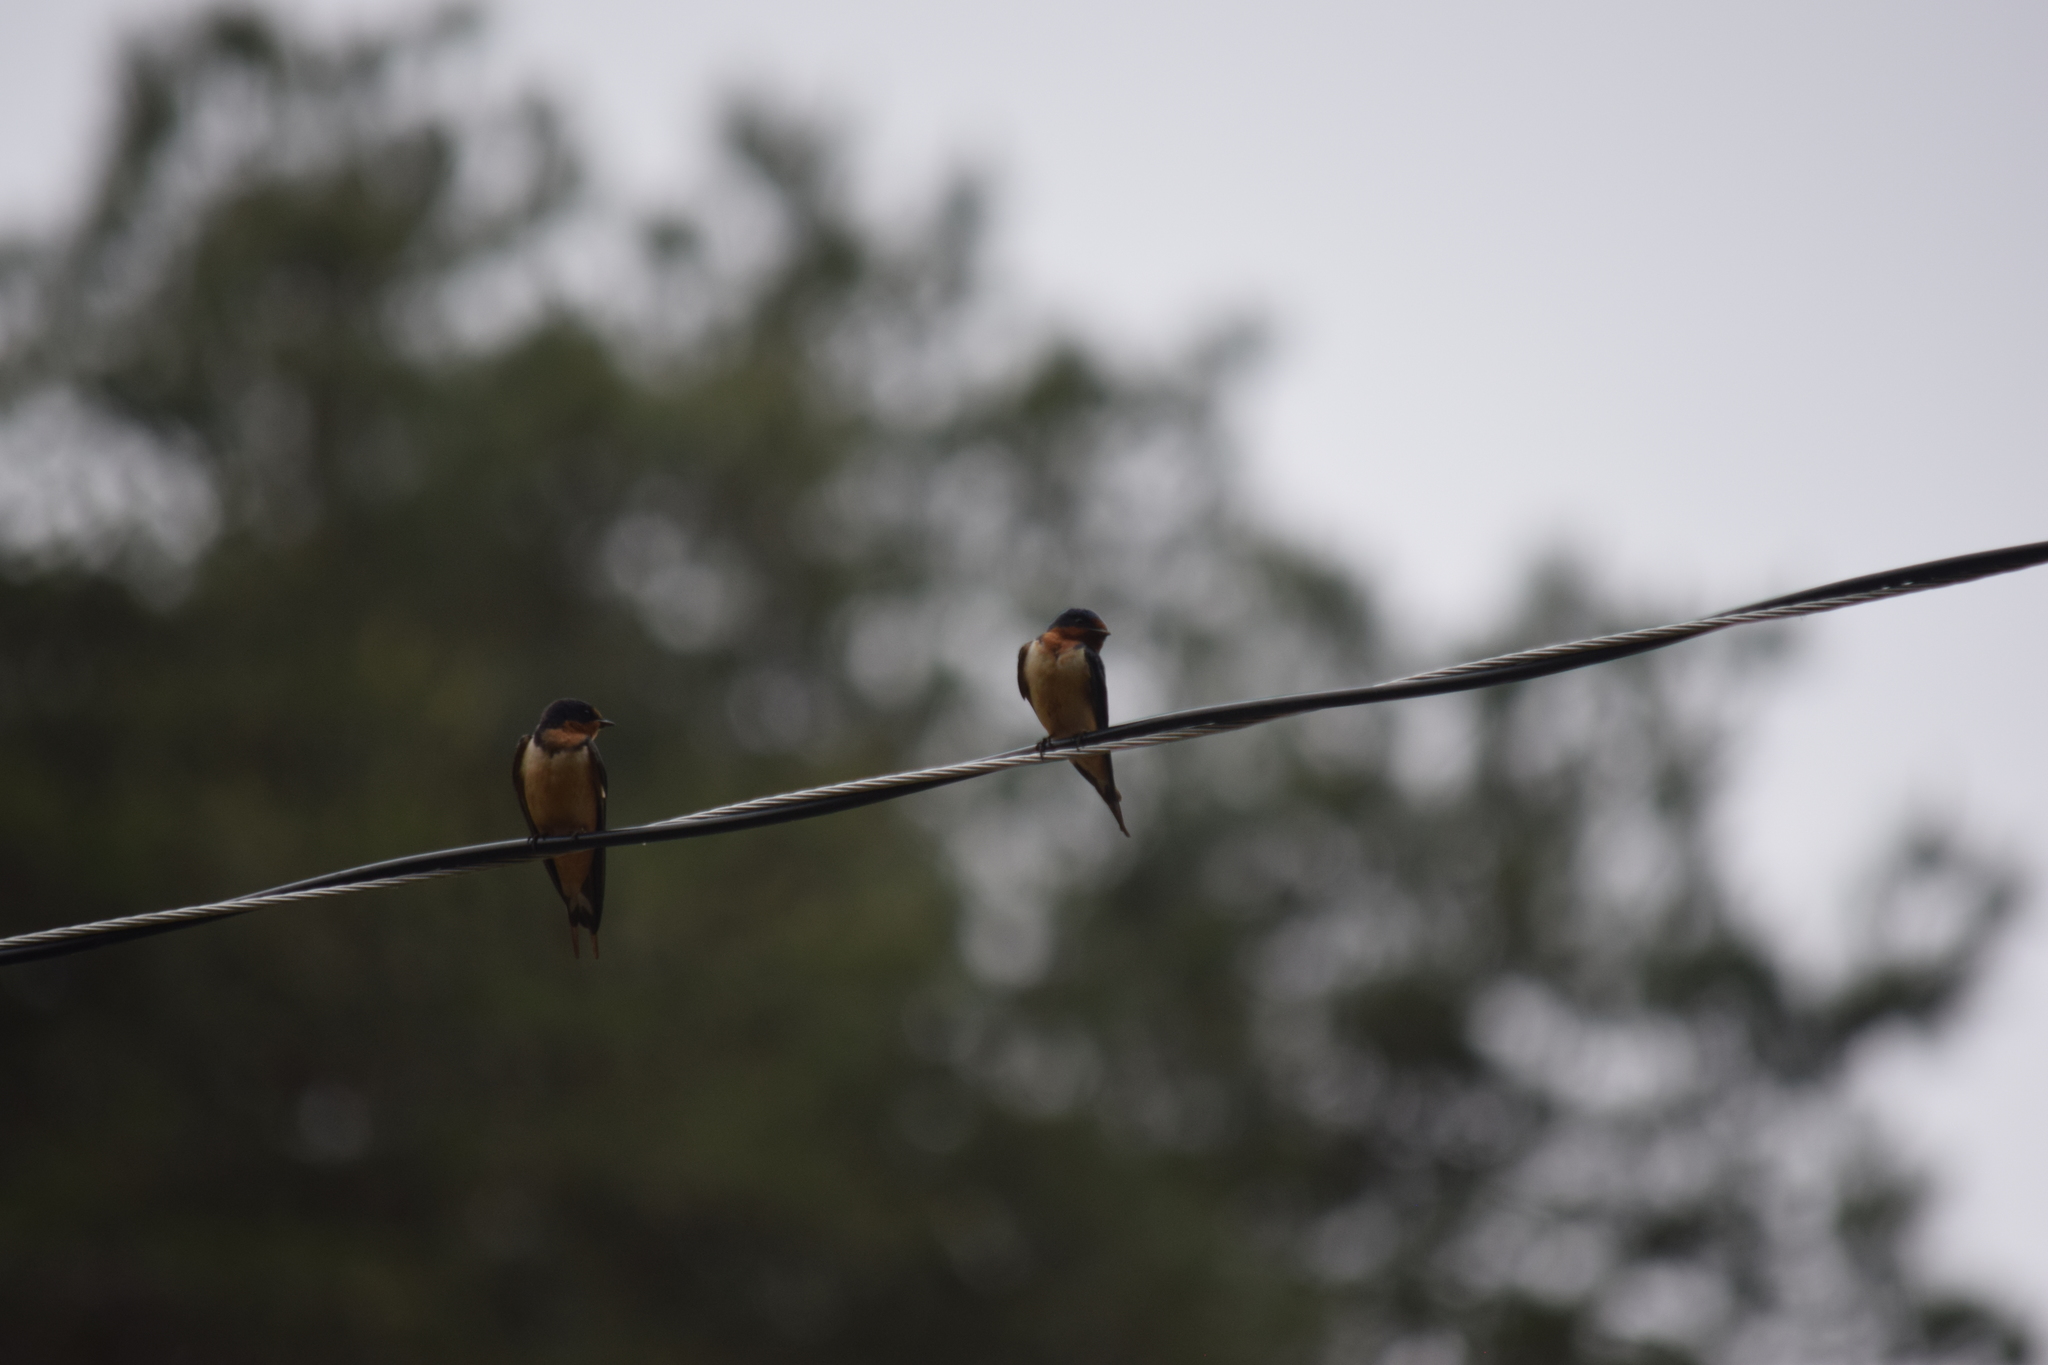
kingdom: Animalia
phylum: Chordata
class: Aves
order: Passeriformes
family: Hirundinidae
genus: Hirundo
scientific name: Hirundo rustica
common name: Barn swallow
